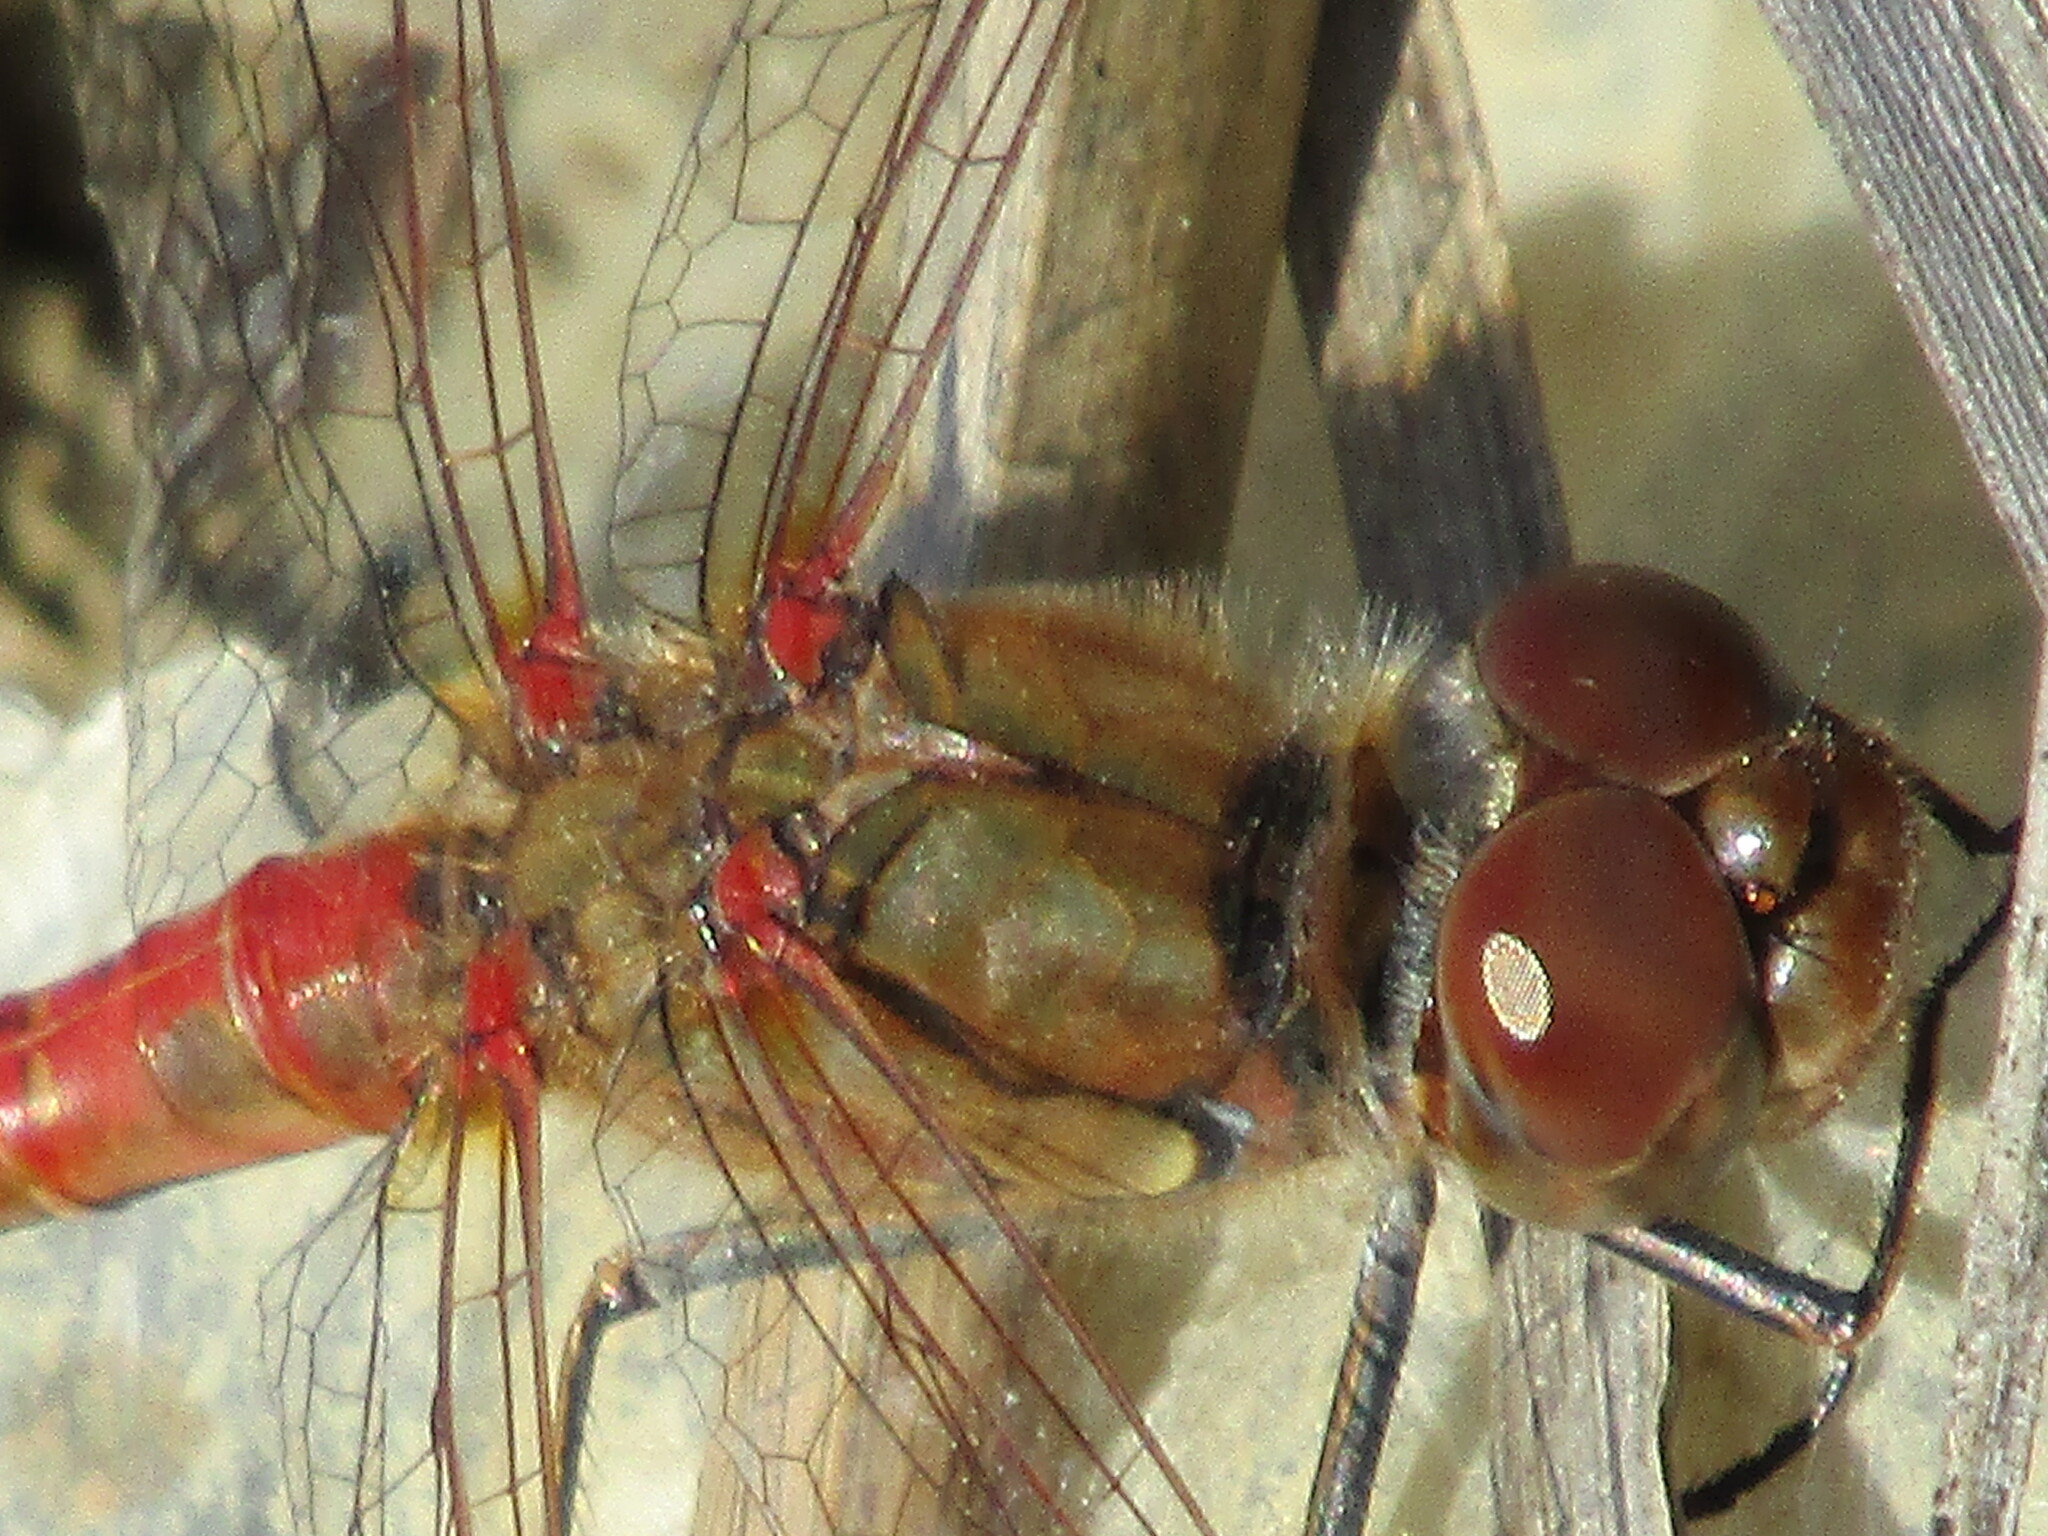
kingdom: Animalia
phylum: Arthropoda
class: Insecta
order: Odonata
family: Libellulidae
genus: Sympetrum
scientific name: Sympetrum striolatum
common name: Common darter
